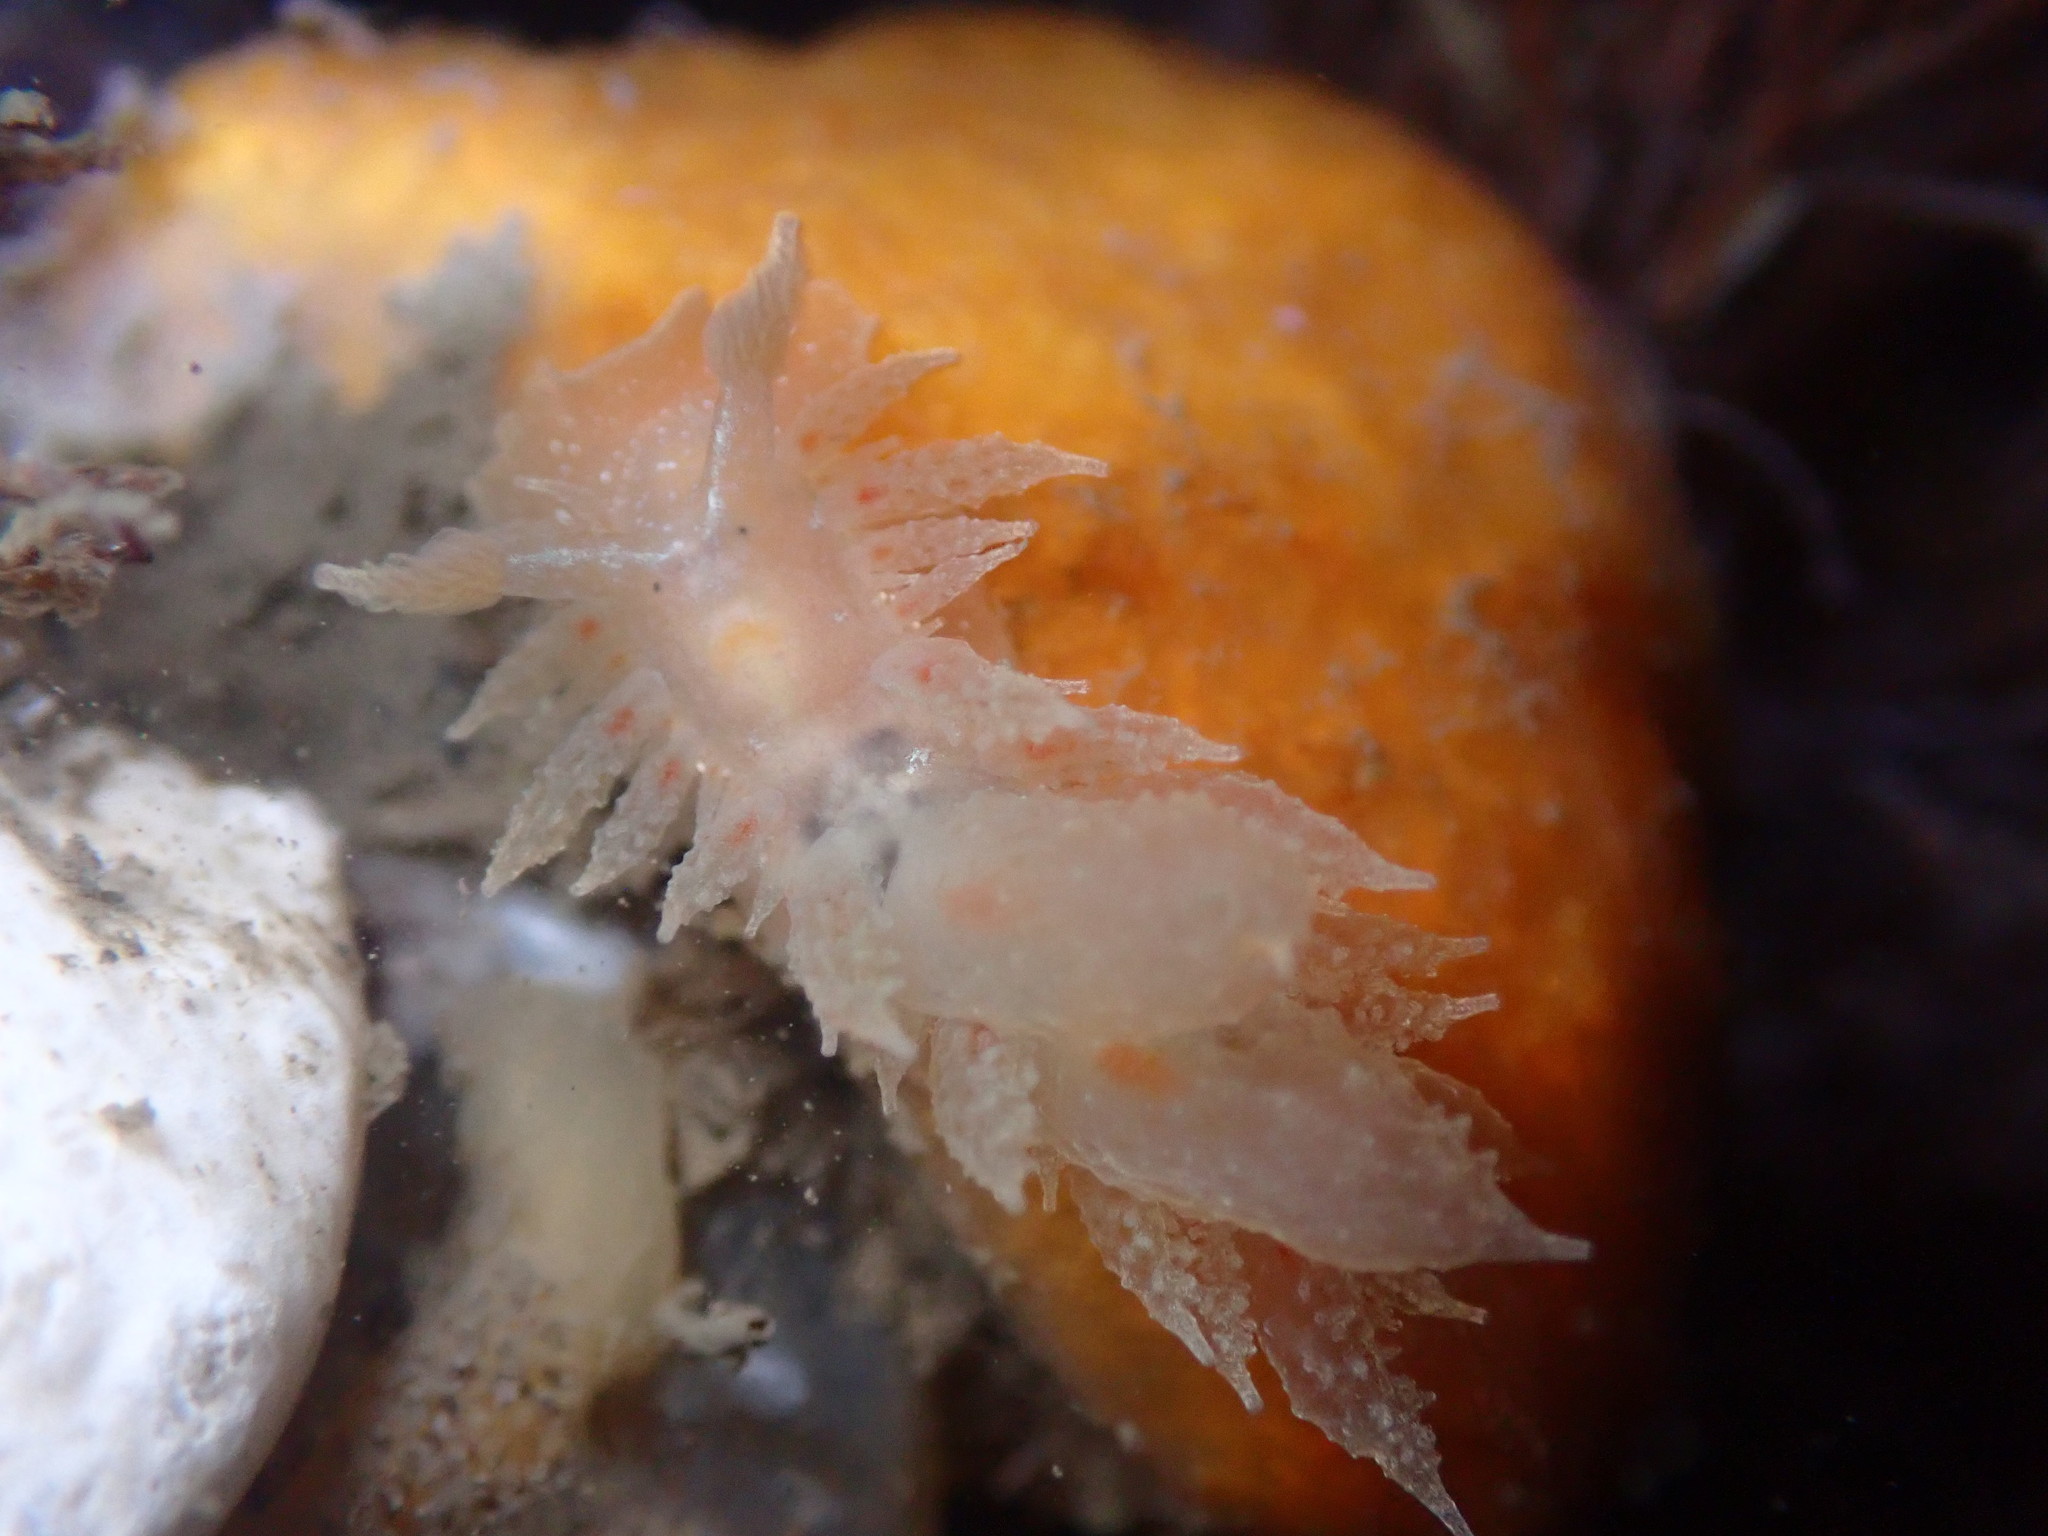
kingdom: Animalia
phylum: Mollusca
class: Gastropoda
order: Nudibranchia
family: Dironidae
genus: Dirona
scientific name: Dirona picta
